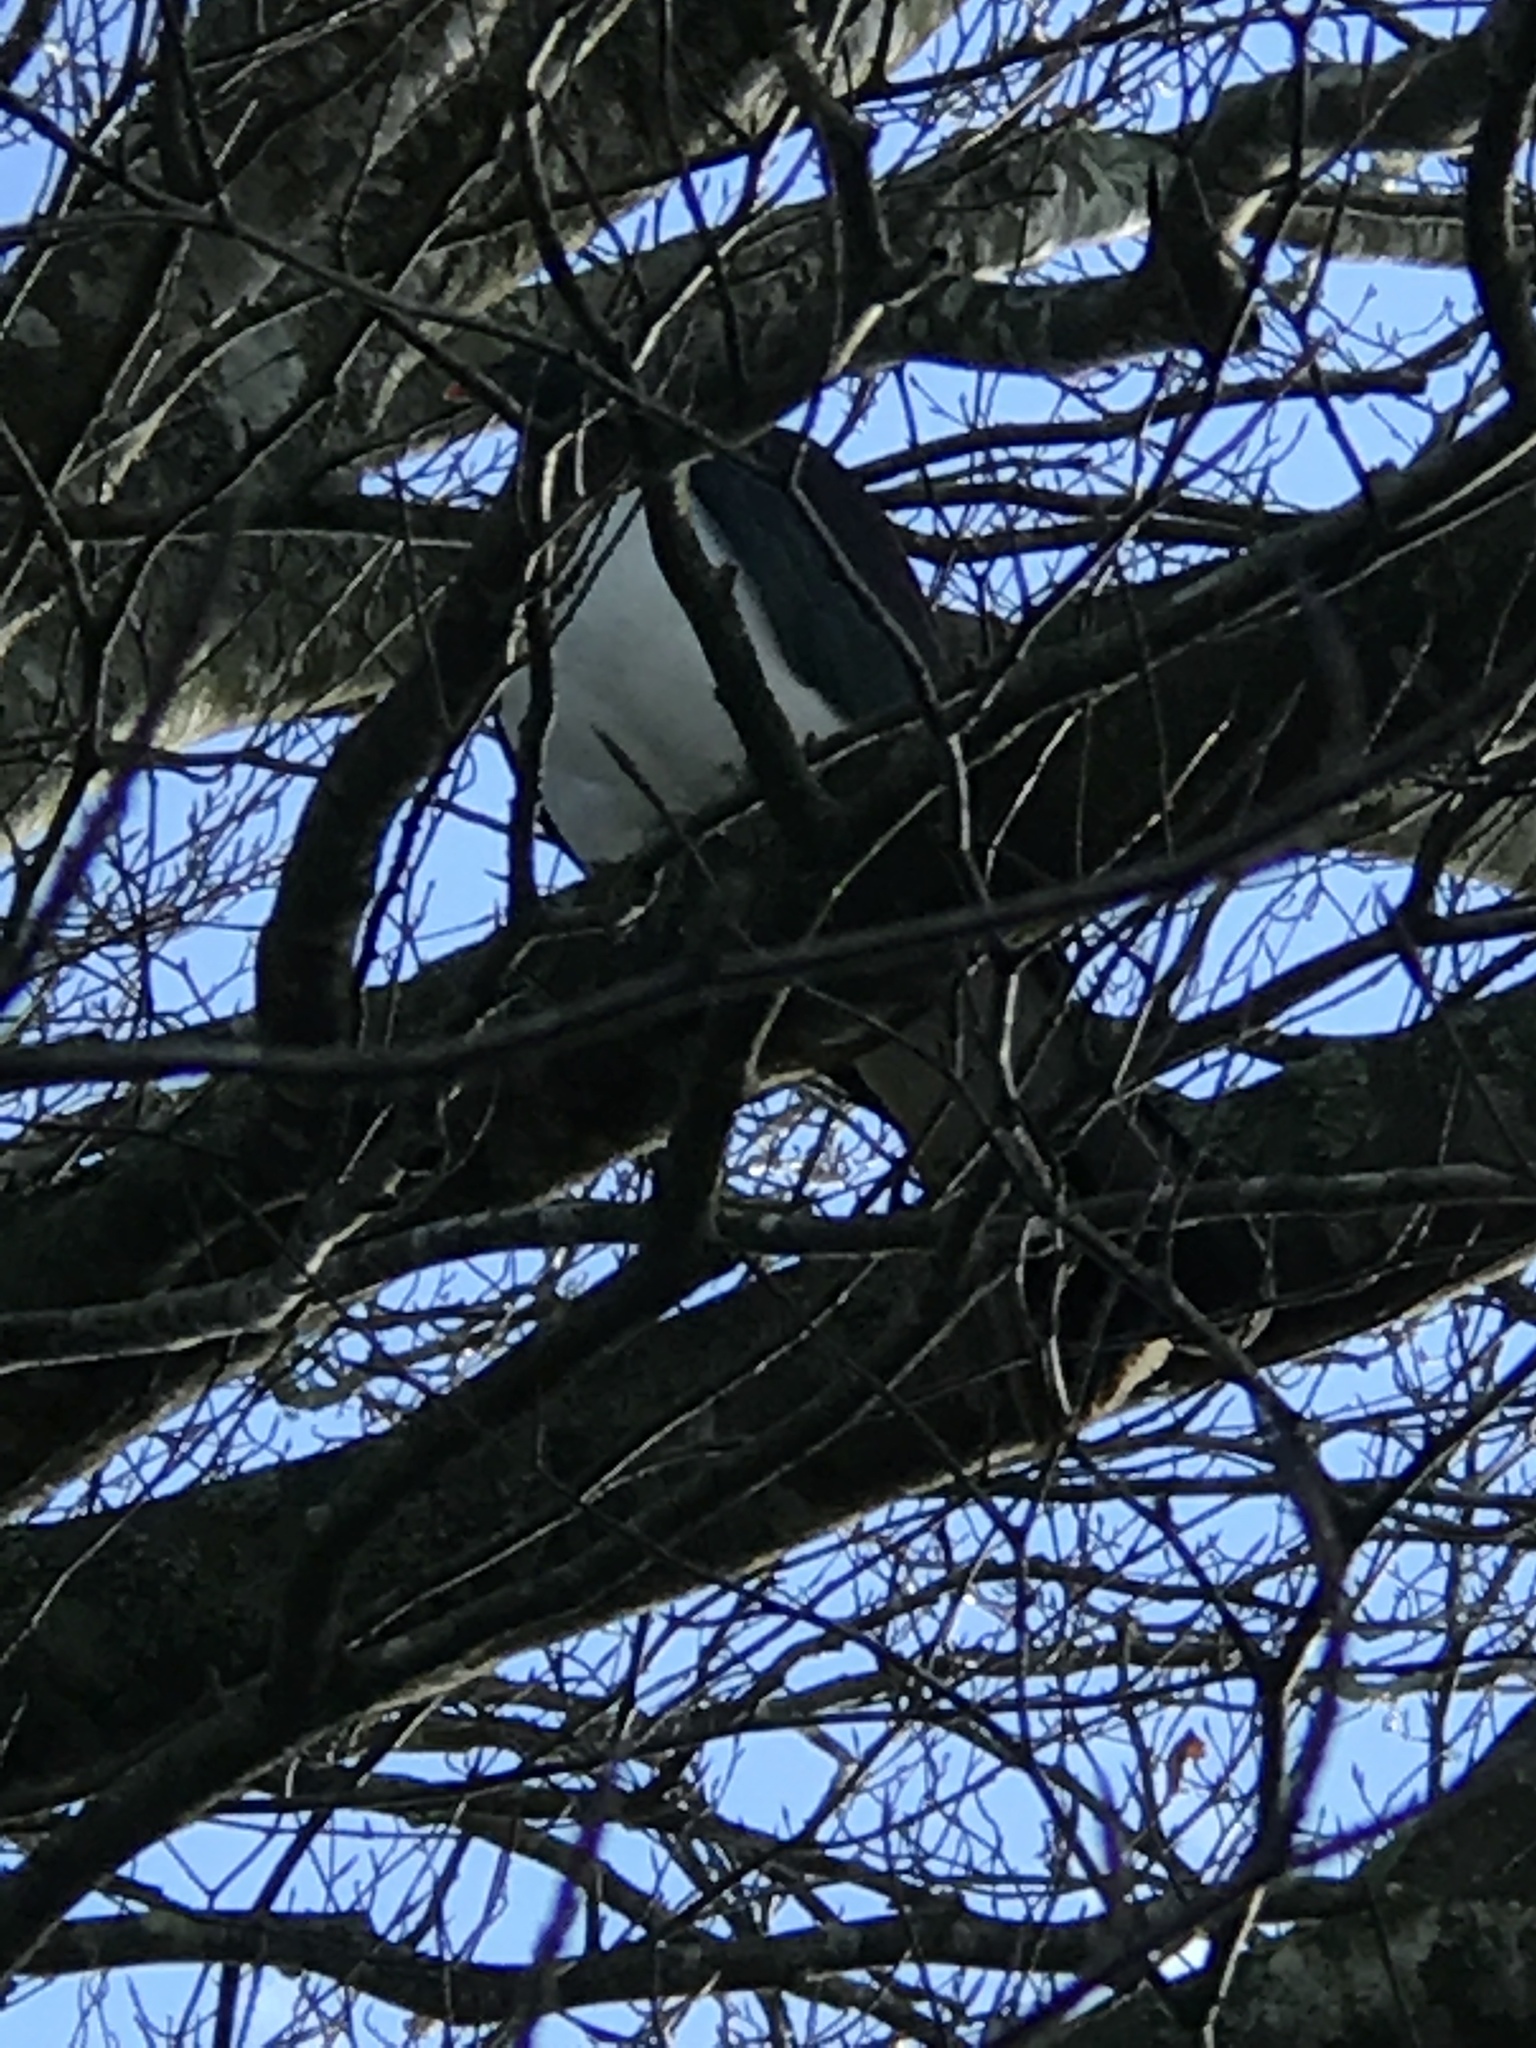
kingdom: Animalia
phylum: Chordata
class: Aves
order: Columbiformes
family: Columbidae
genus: Hemiphaga
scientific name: Hemiphaga novaeseelandiae
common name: New zealand pigeon
